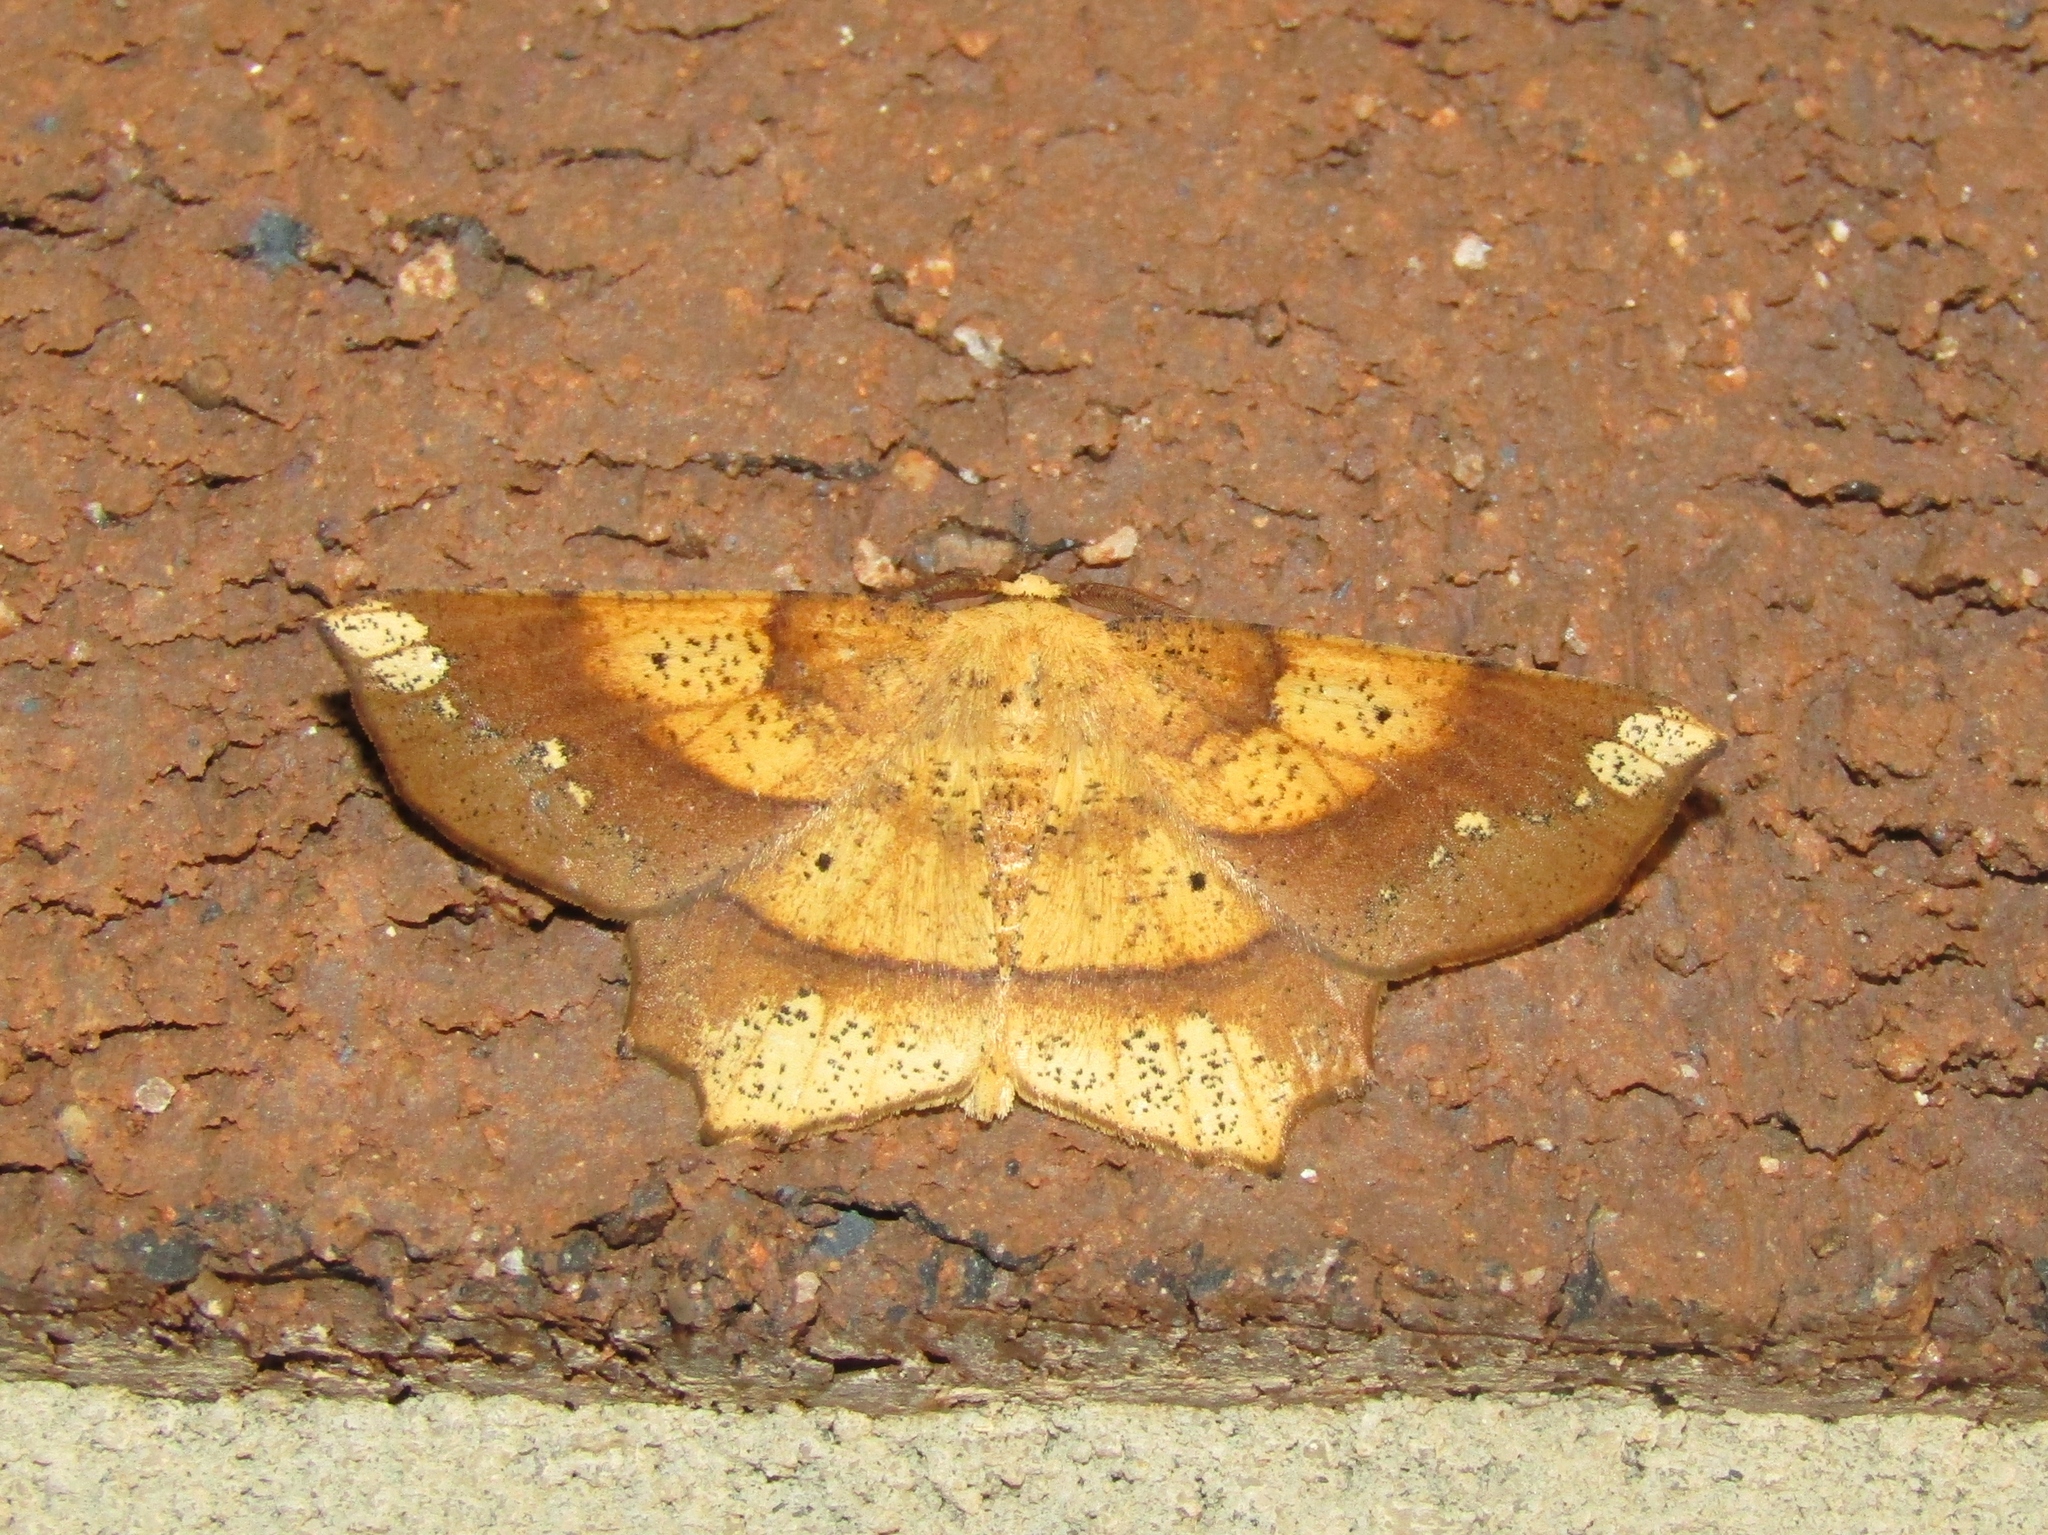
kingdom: Animalia
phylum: Arthropoda
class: Insecta
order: Lepidoptera
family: Geometridae
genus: Euchlaena
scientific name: Euchlaena amoenaria
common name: Deep yellow euchlaena
